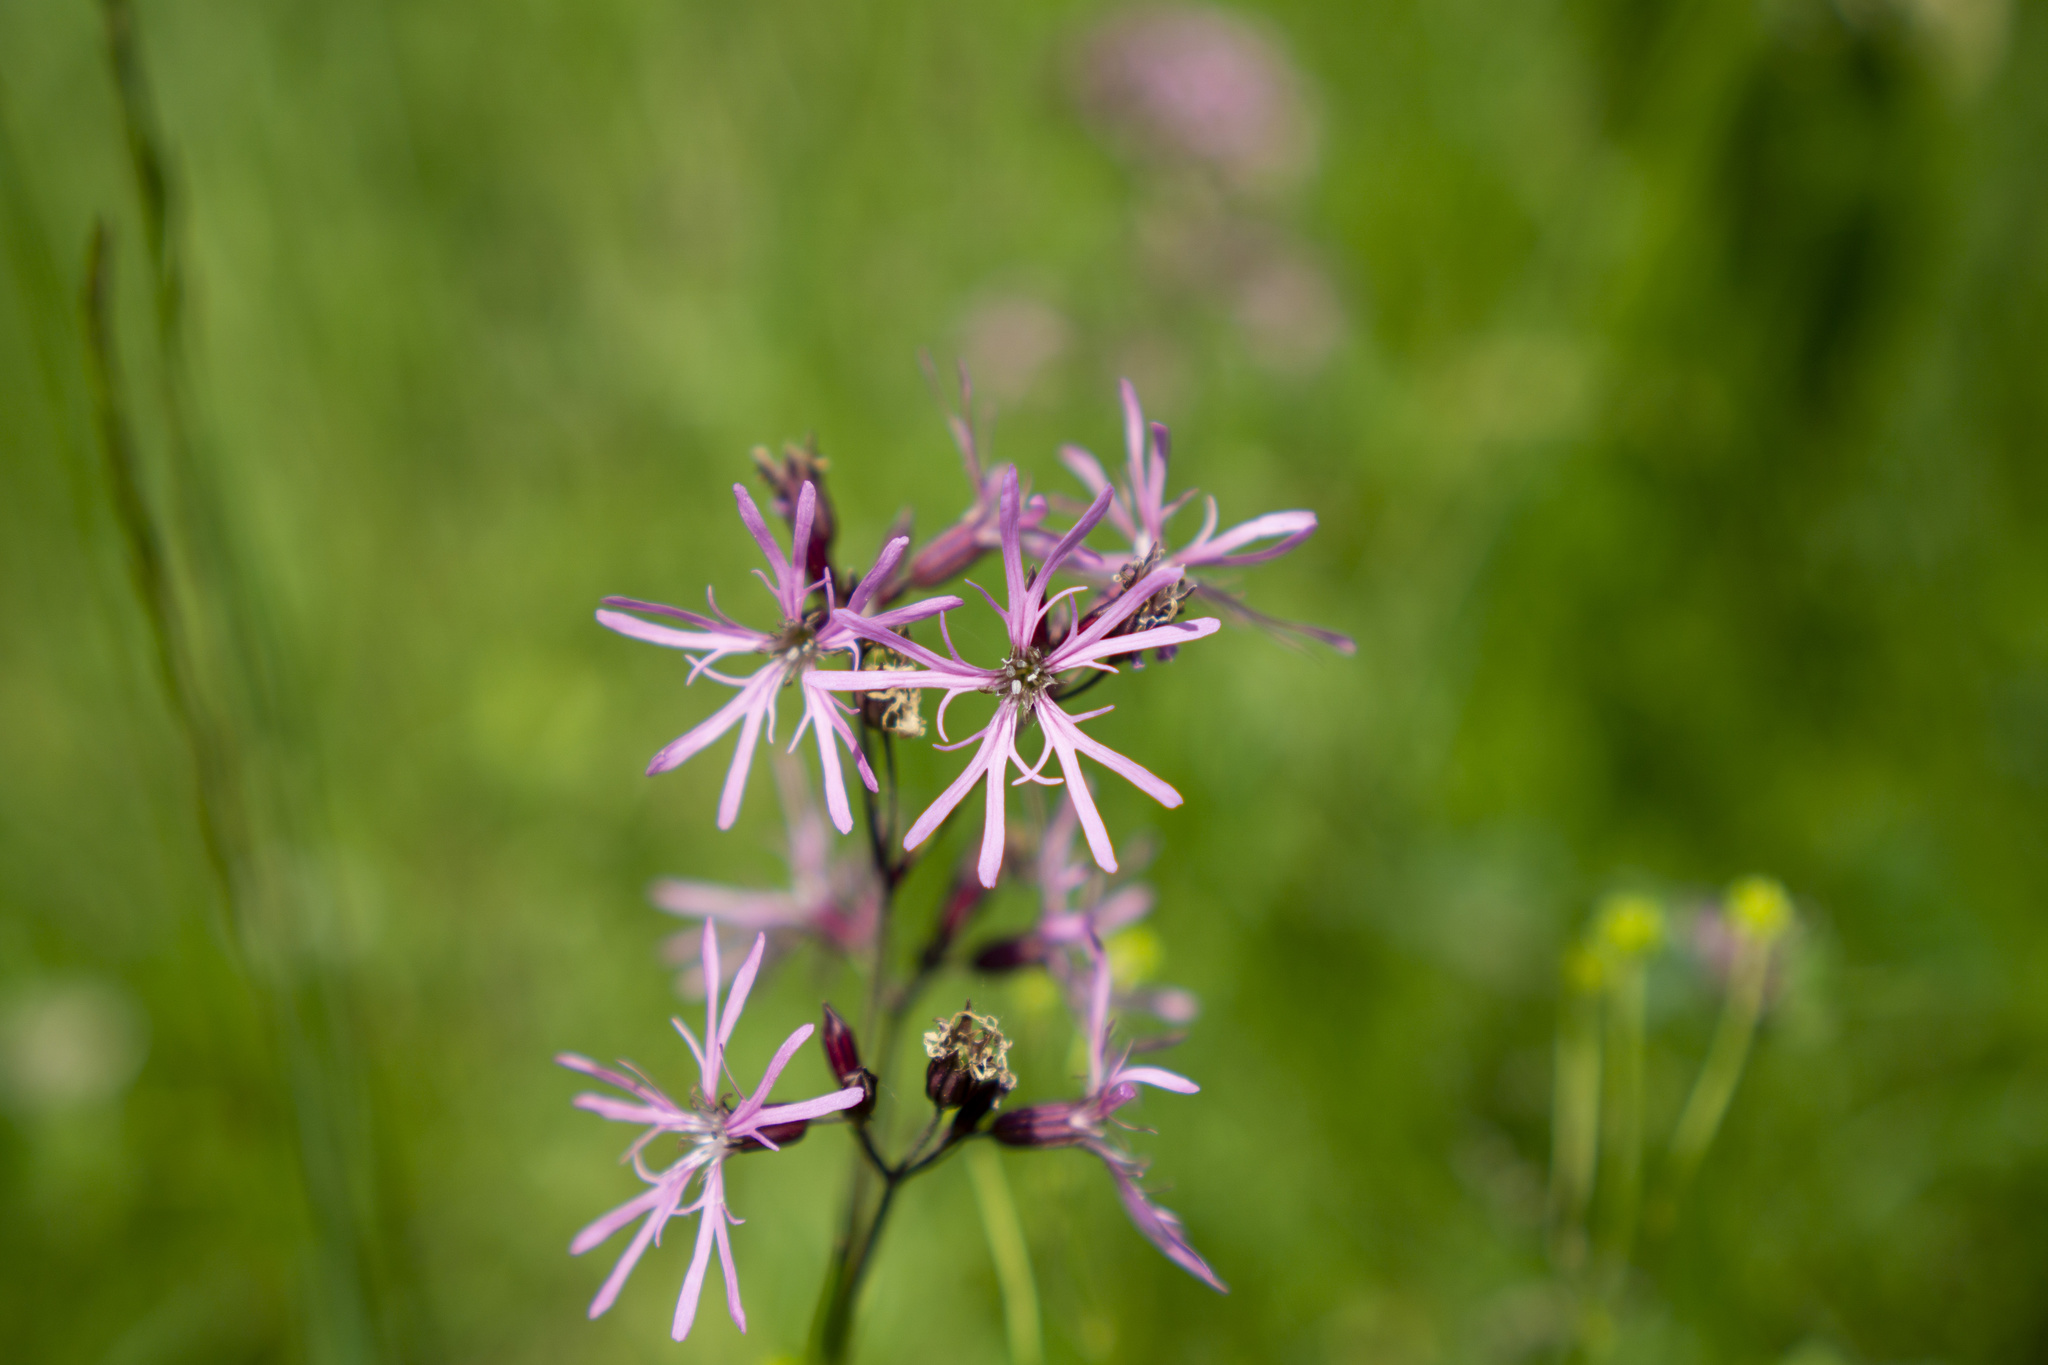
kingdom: Plantae
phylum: Tracheophyta
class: Magnoliopsida
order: Caryophyllales
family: Caryophyllaceae
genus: Silene
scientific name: Silene flos-cuculi
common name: Ragged-robin
